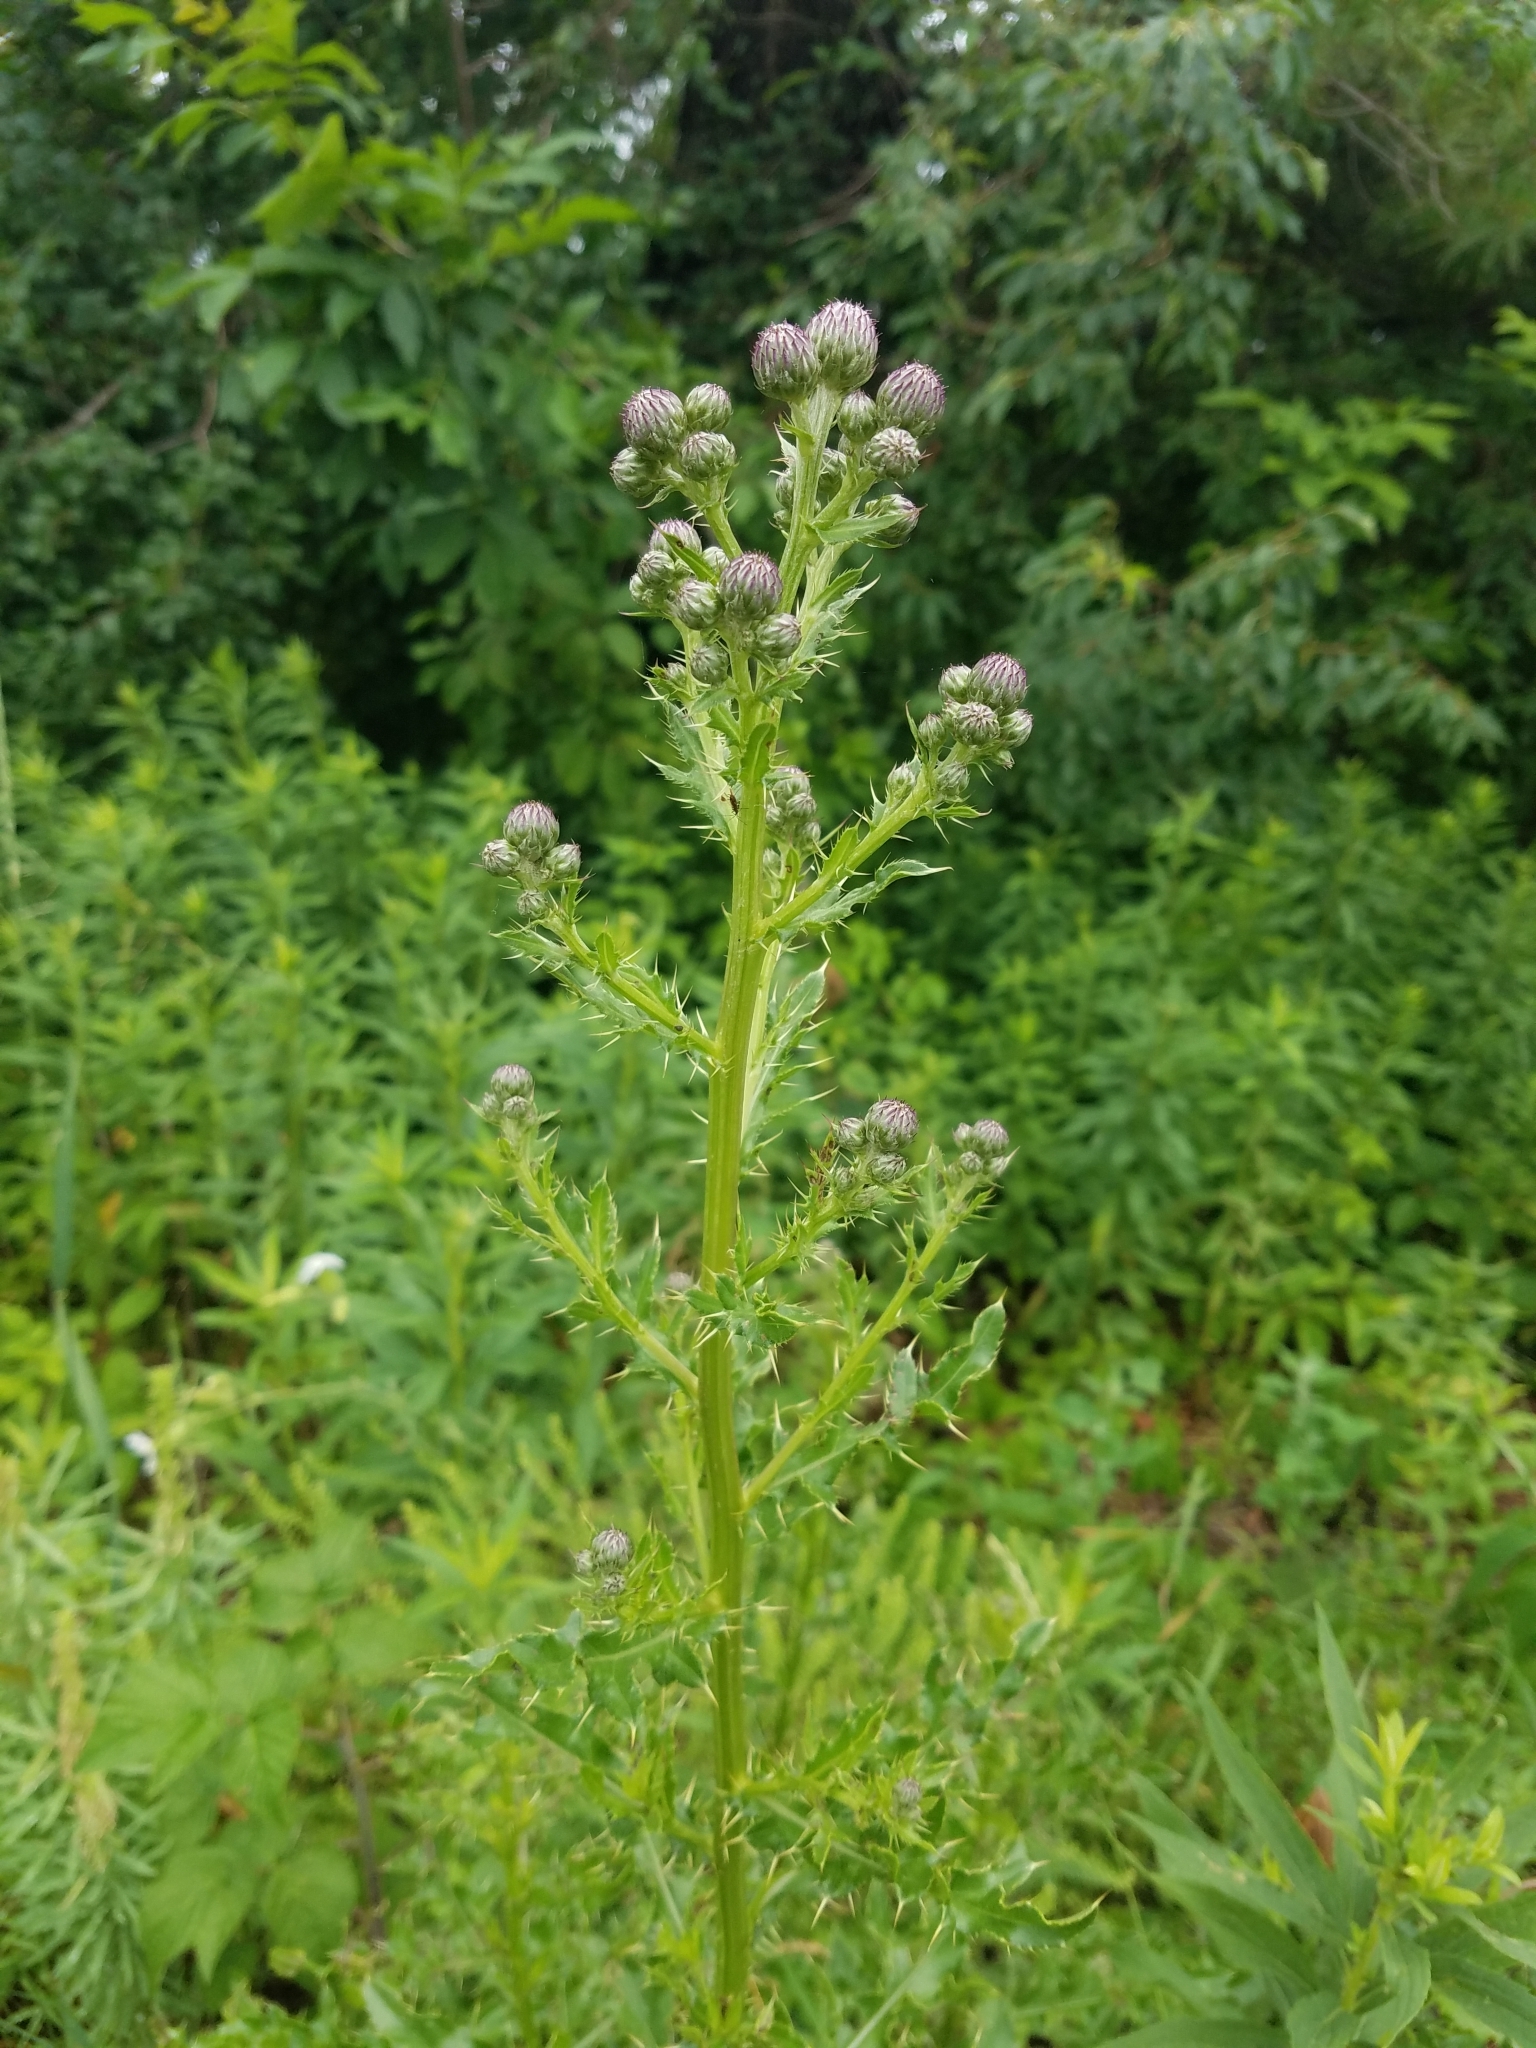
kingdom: Plantae
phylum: Tracheophyta
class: Magnoliopsida
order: Asterales
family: Asteraceae
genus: Cirsium
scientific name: Cirsium arvense
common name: Creeping thistle
